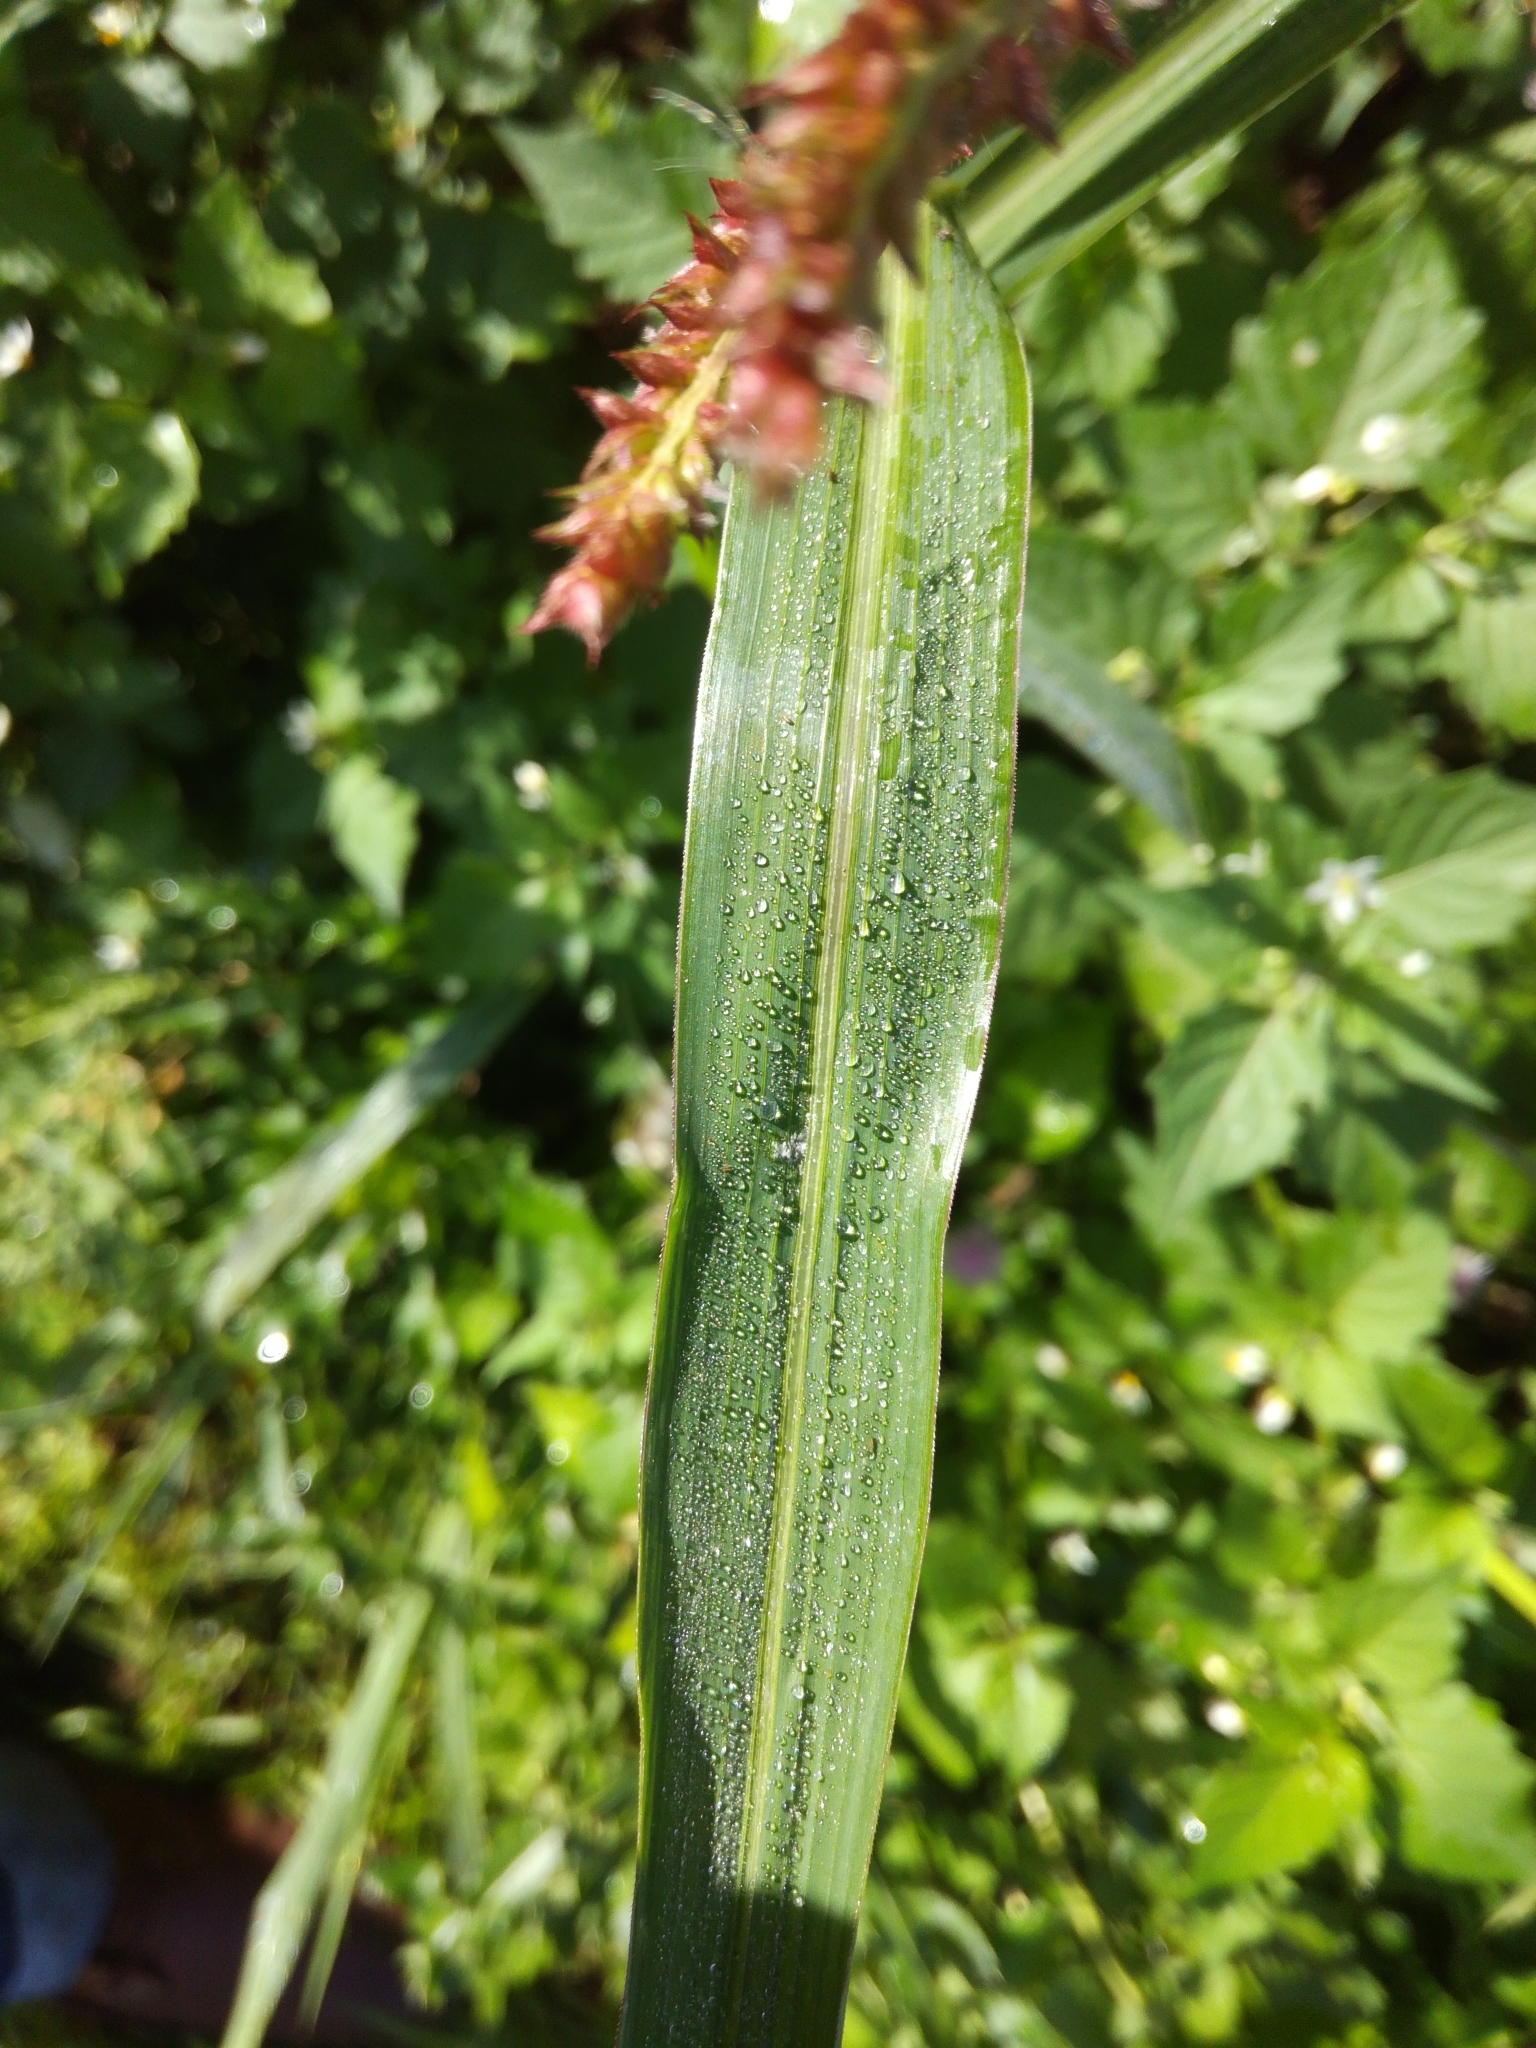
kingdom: Plantae
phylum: Tracheophyta
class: Liliopsida
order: Poales
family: Poaceae
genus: Echinochloa
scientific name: Echinochloa crus-galli
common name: Cockspur
